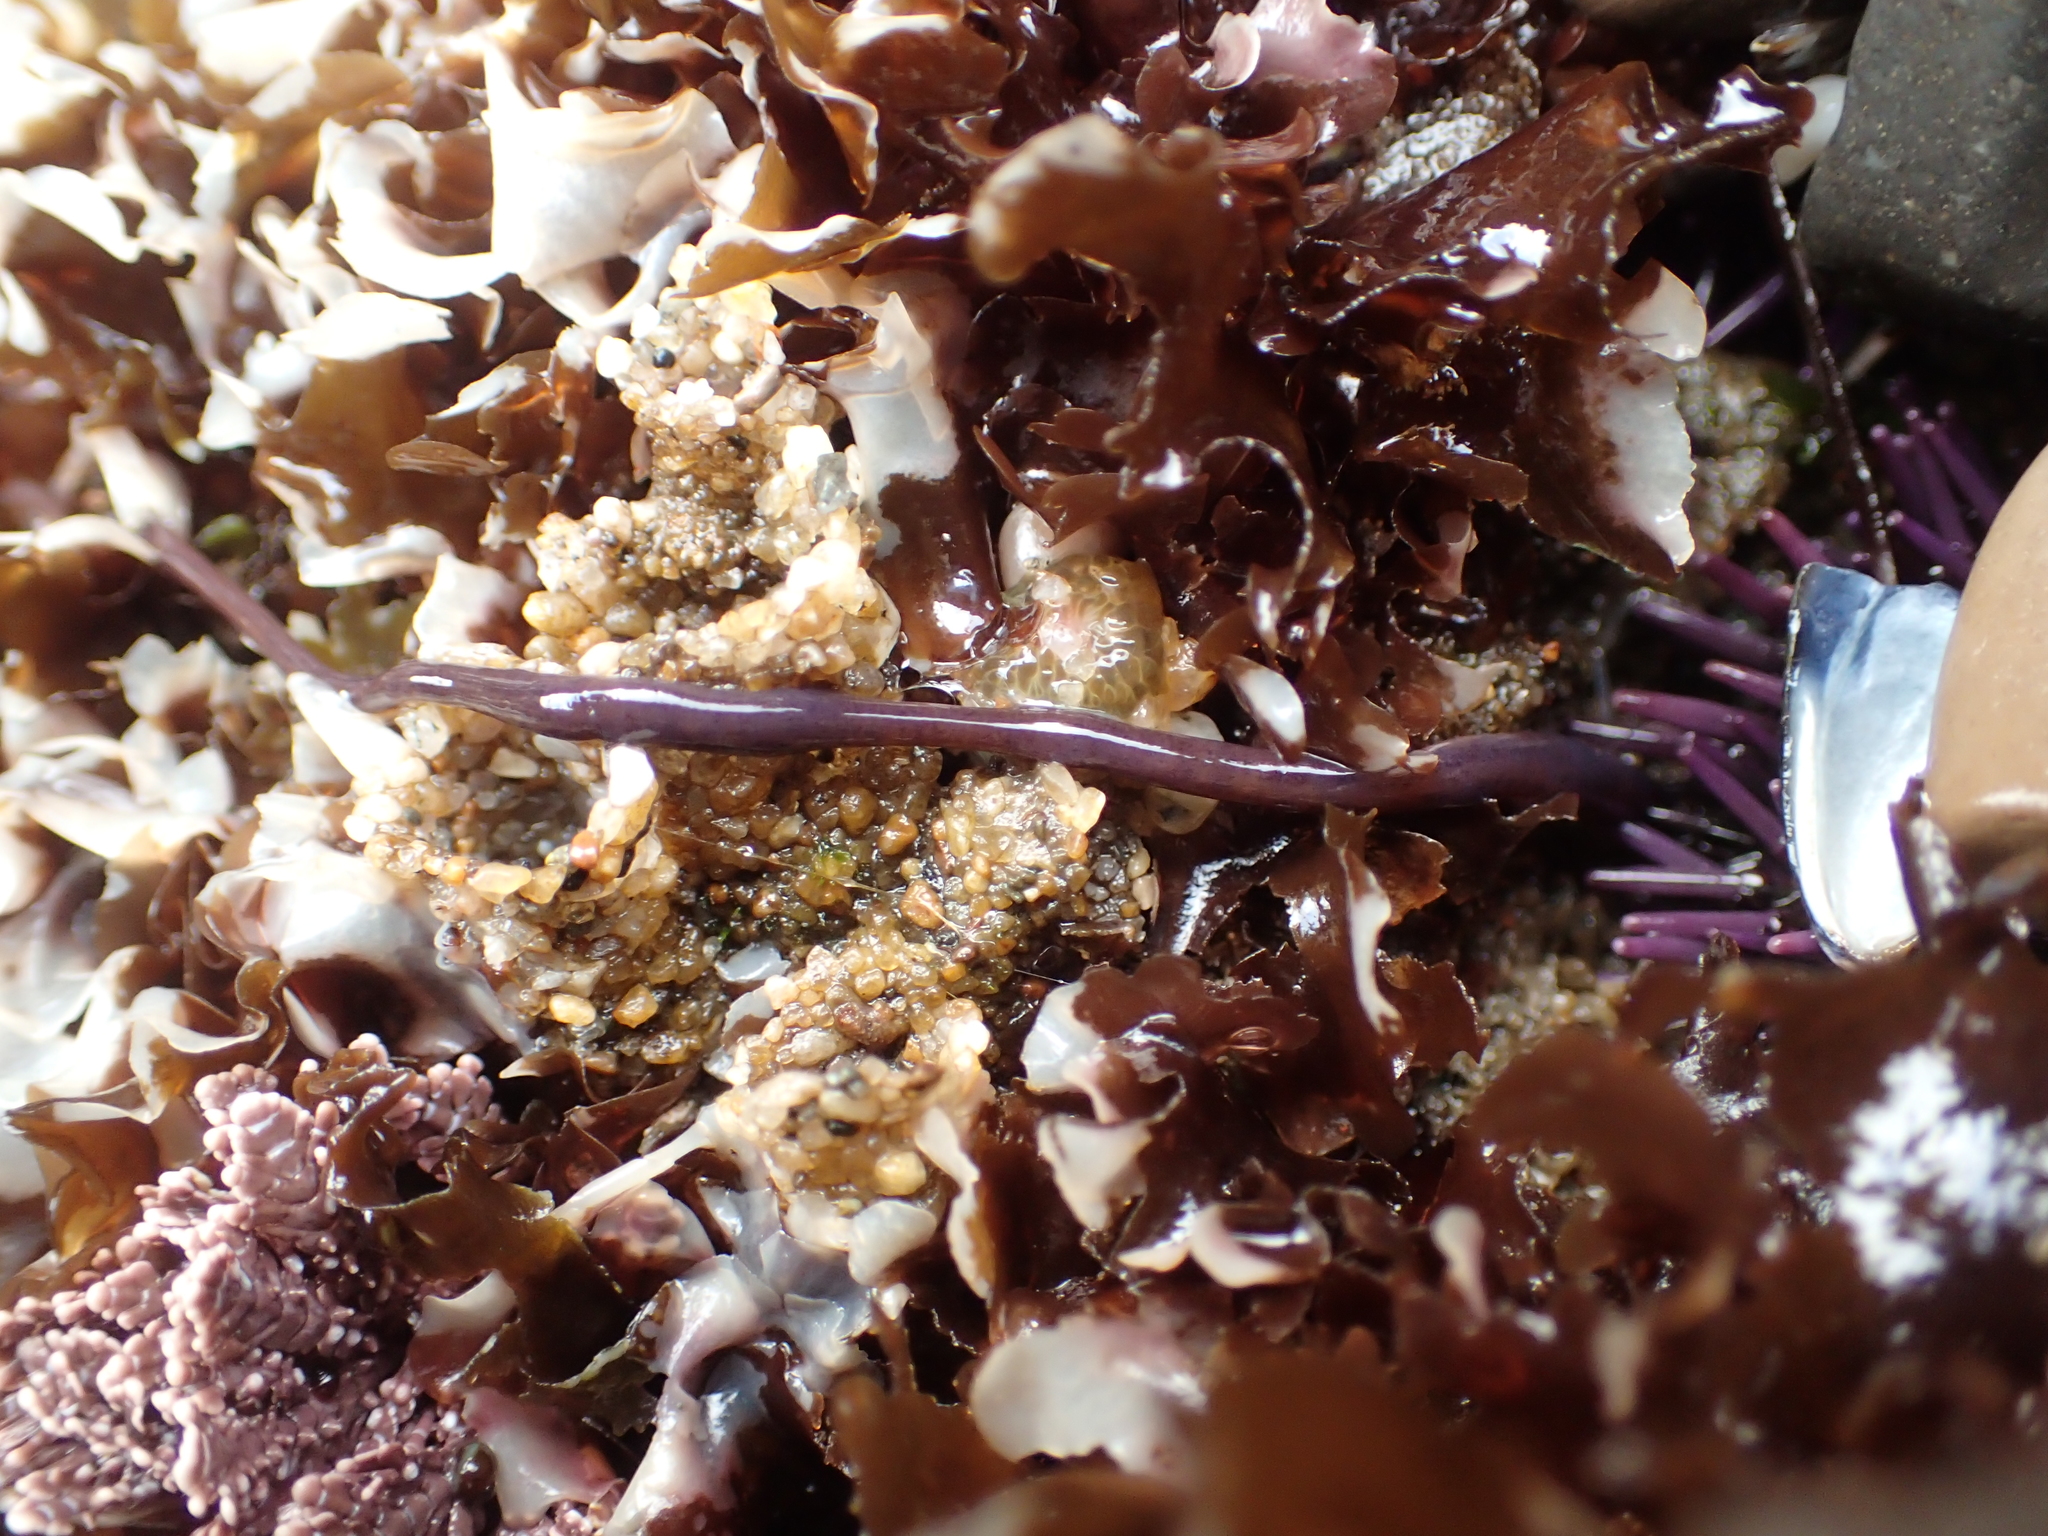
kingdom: Animalia
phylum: Nemertea
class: Hoplonemertea
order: Monostilifera
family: Neesiidae
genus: Paranemertes
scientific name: Paranemertes peregrina
